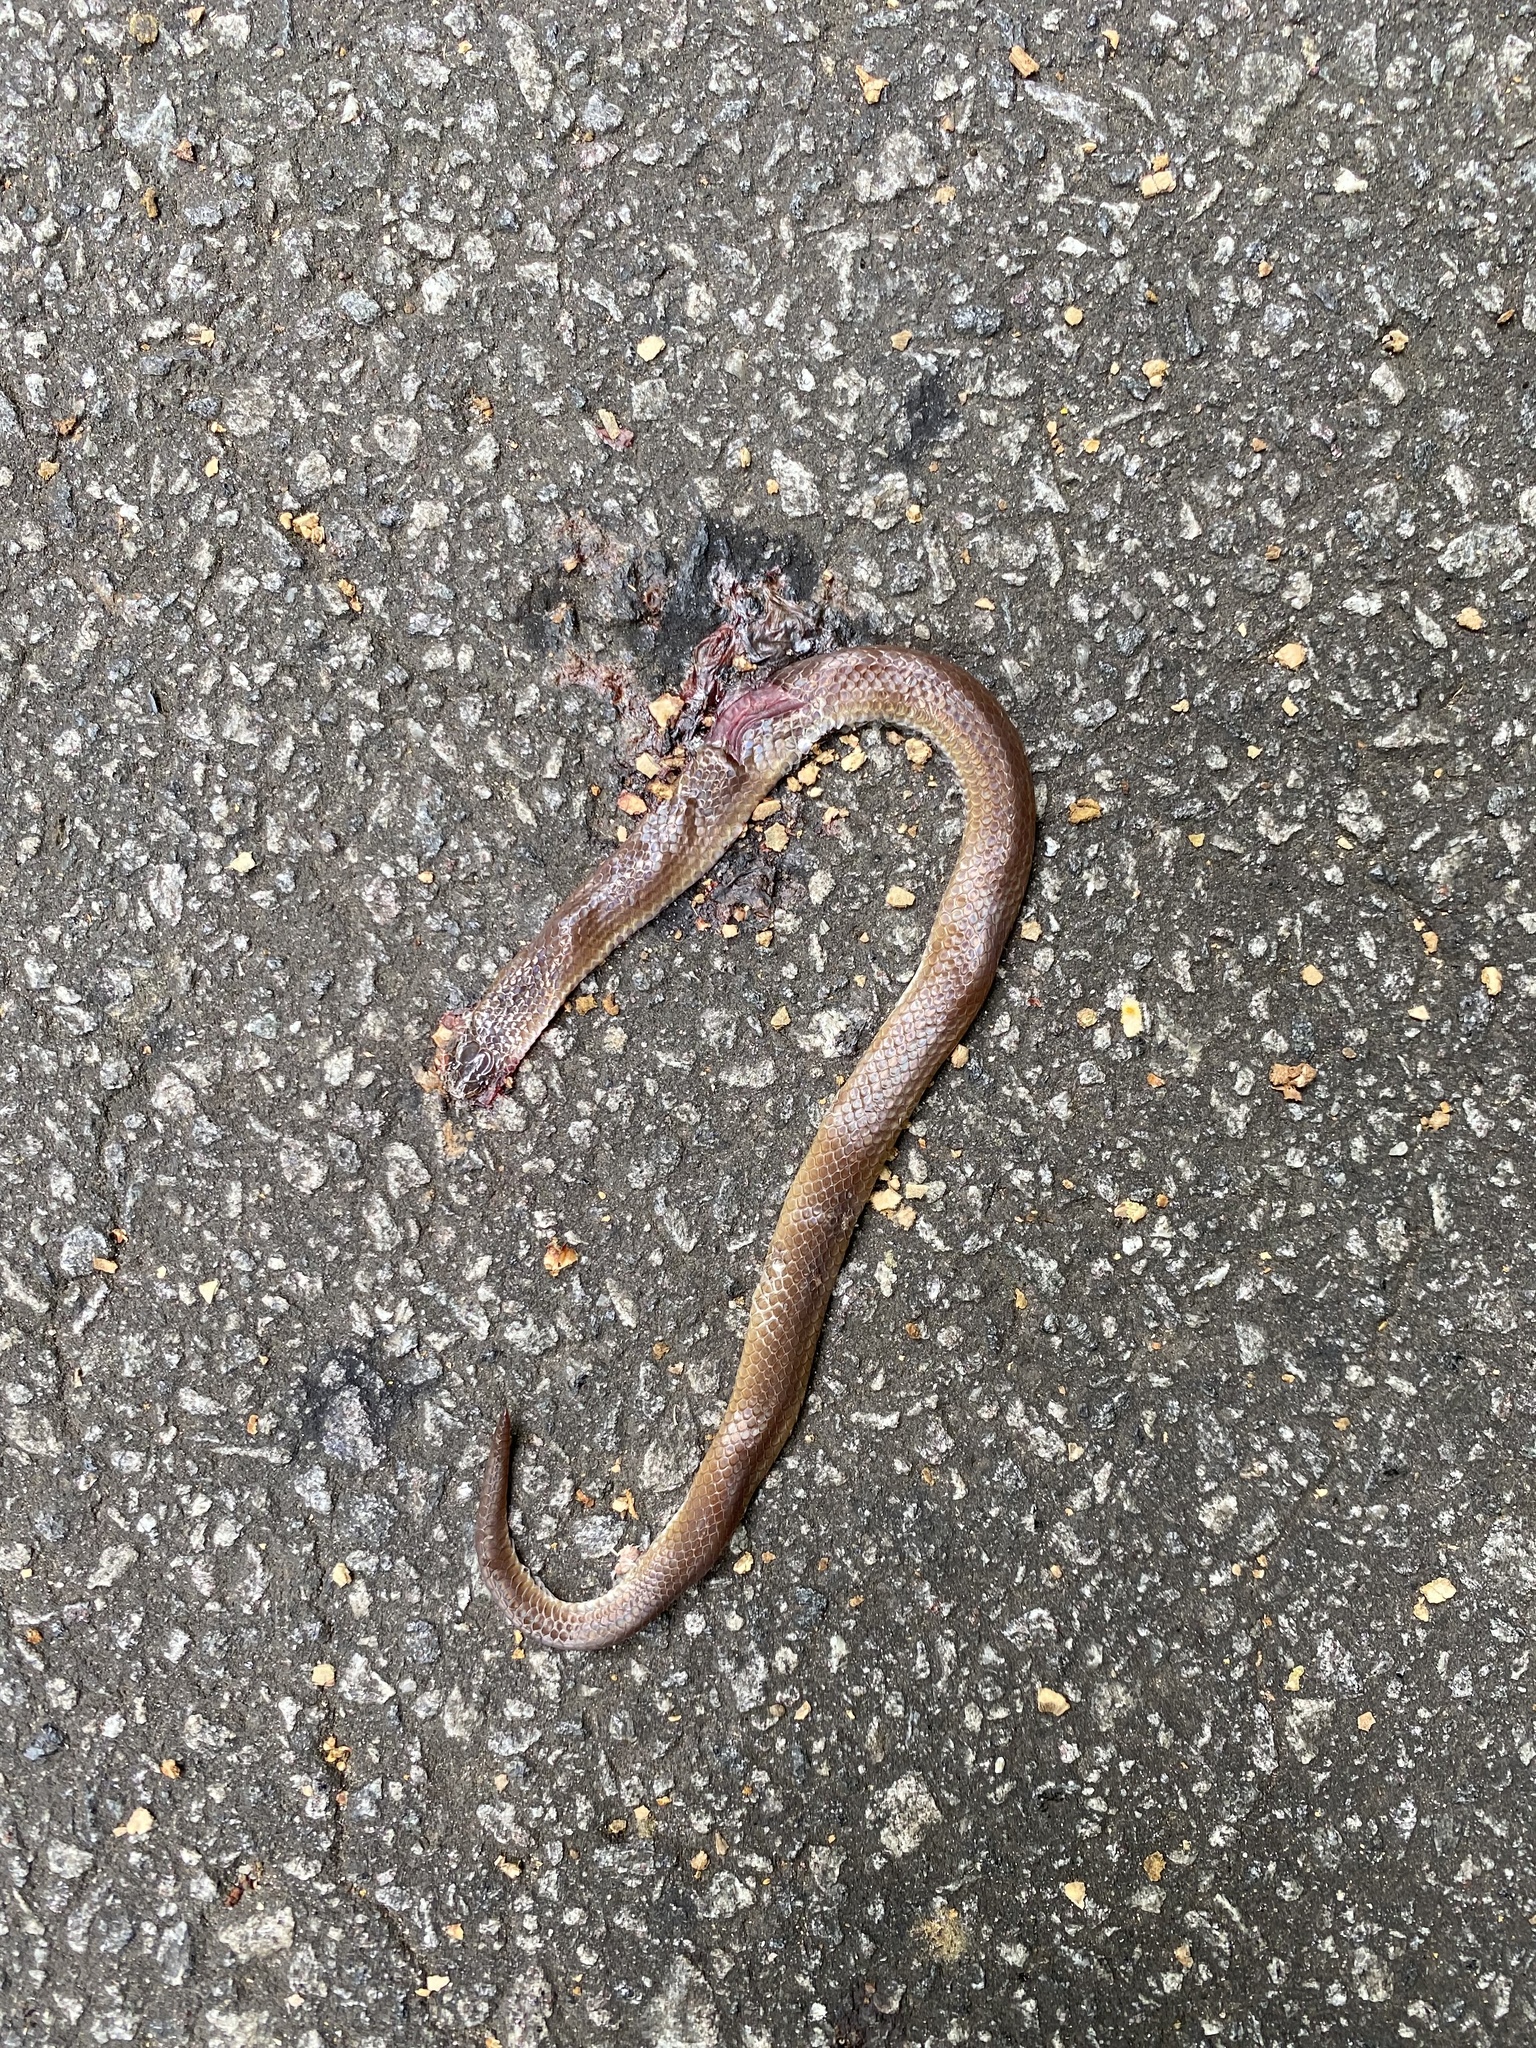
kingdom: Animalia
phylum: Chordata
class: Squamata
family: Colubridae
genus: Carphophis
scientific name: Carphophis amoenus
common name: Eastern worm snake
